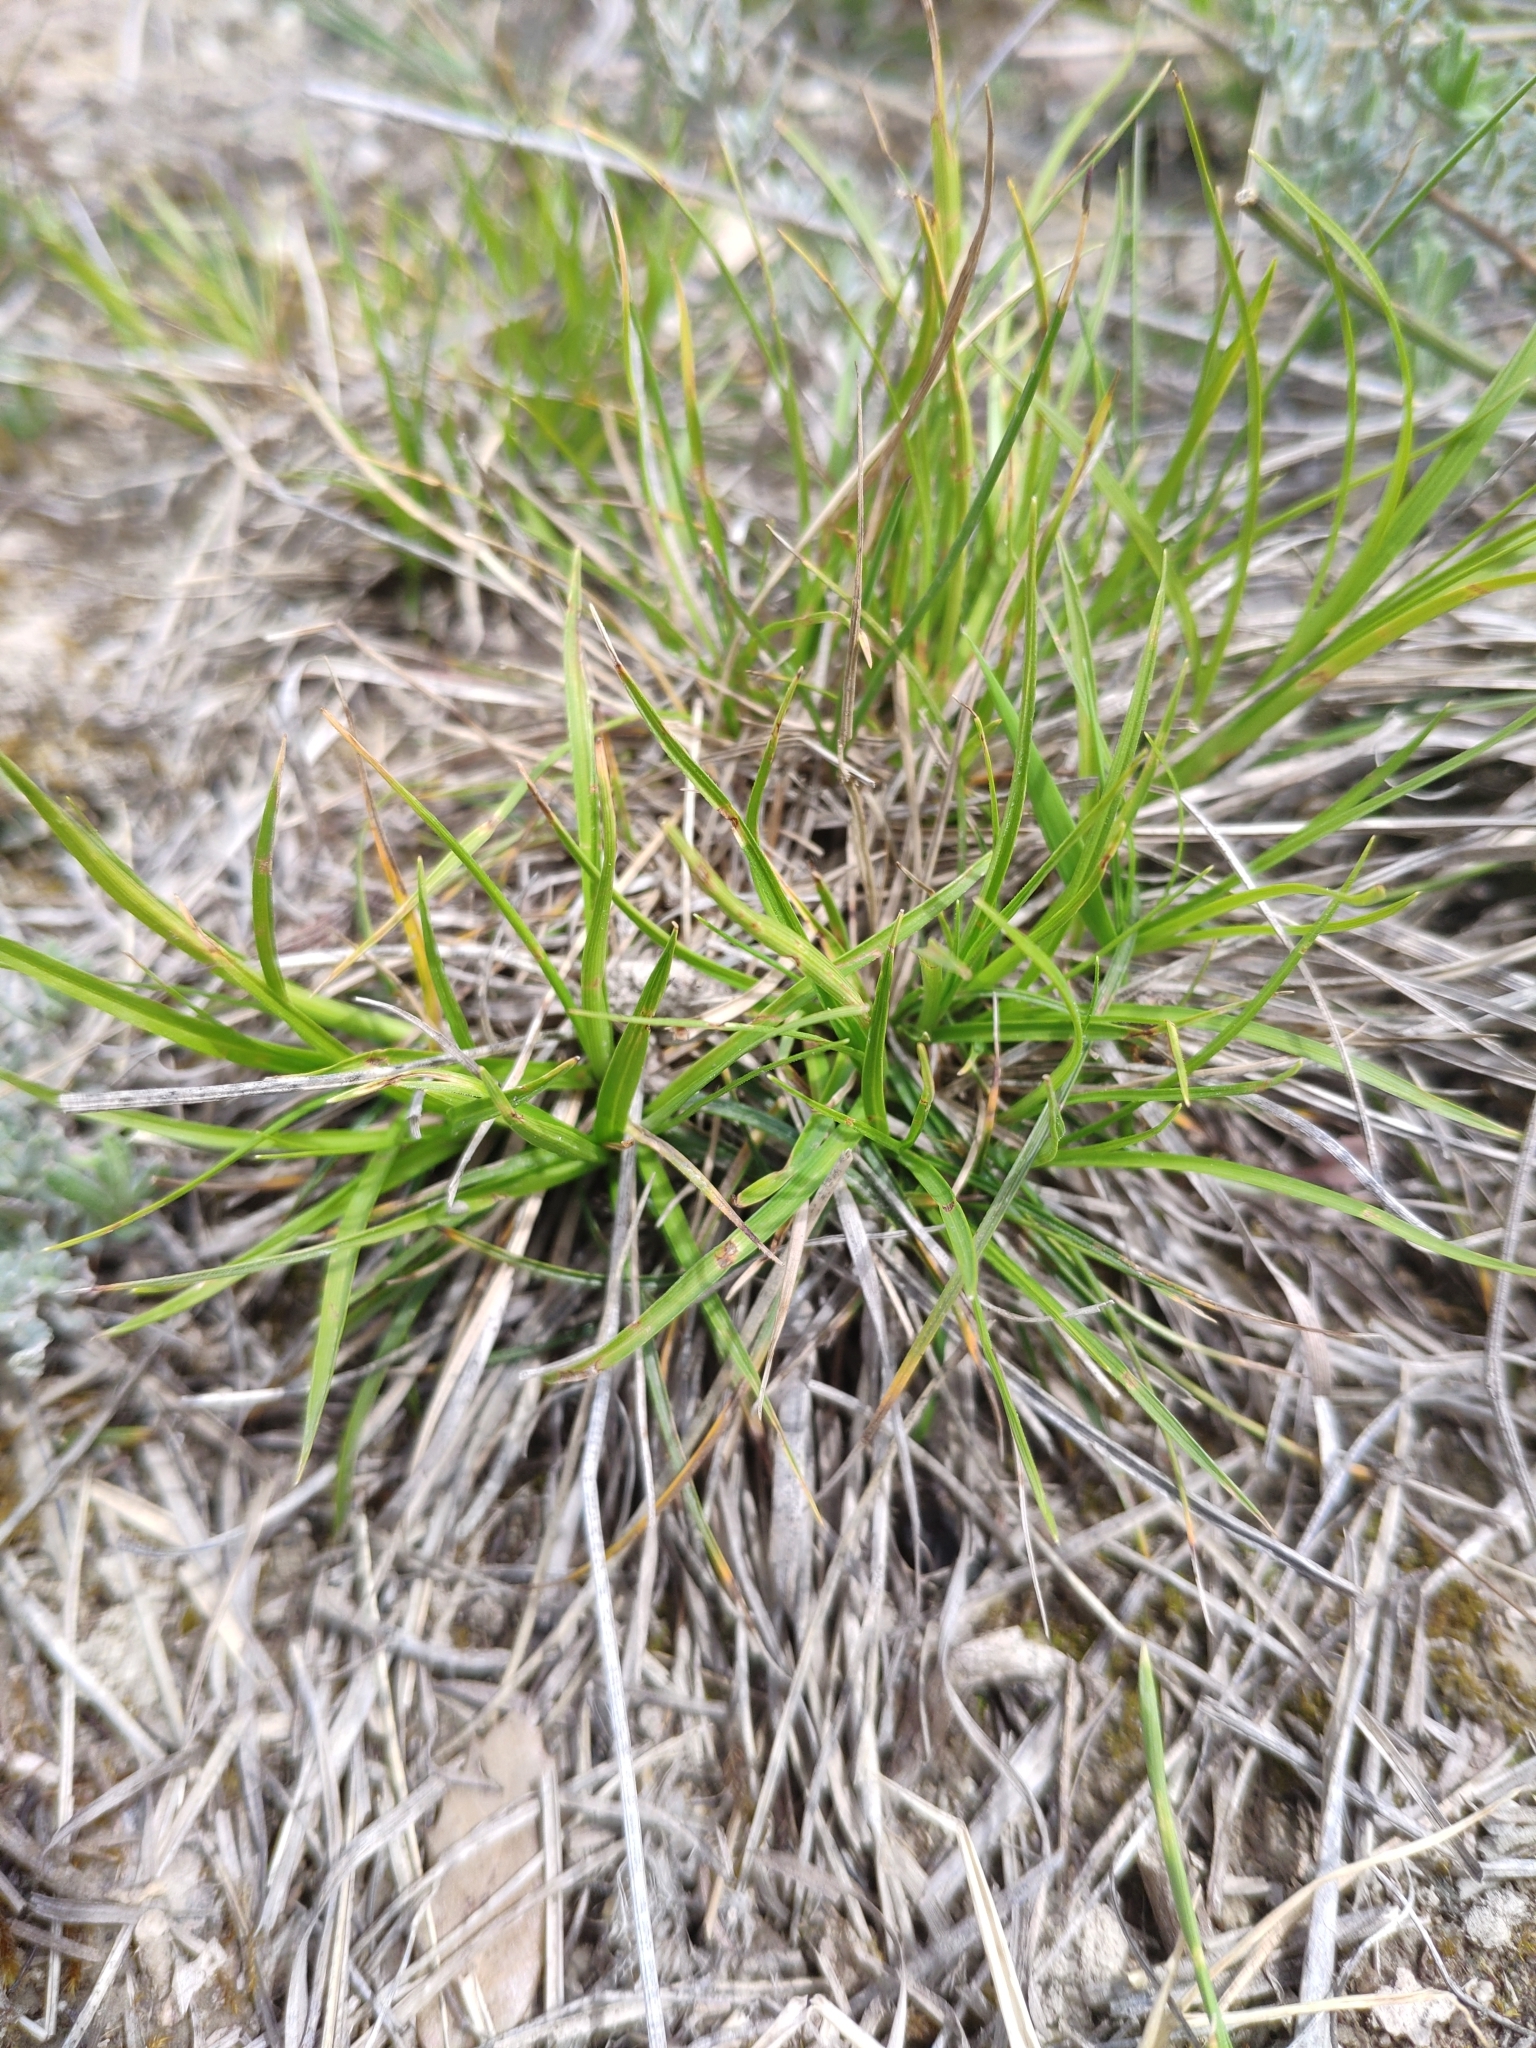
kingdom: Plantae
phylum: Tracheophyta
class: Liliopsida
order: Poales
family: Cyperaceae
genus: Carex
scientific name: Carex humilis
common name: Dwarf sedge
